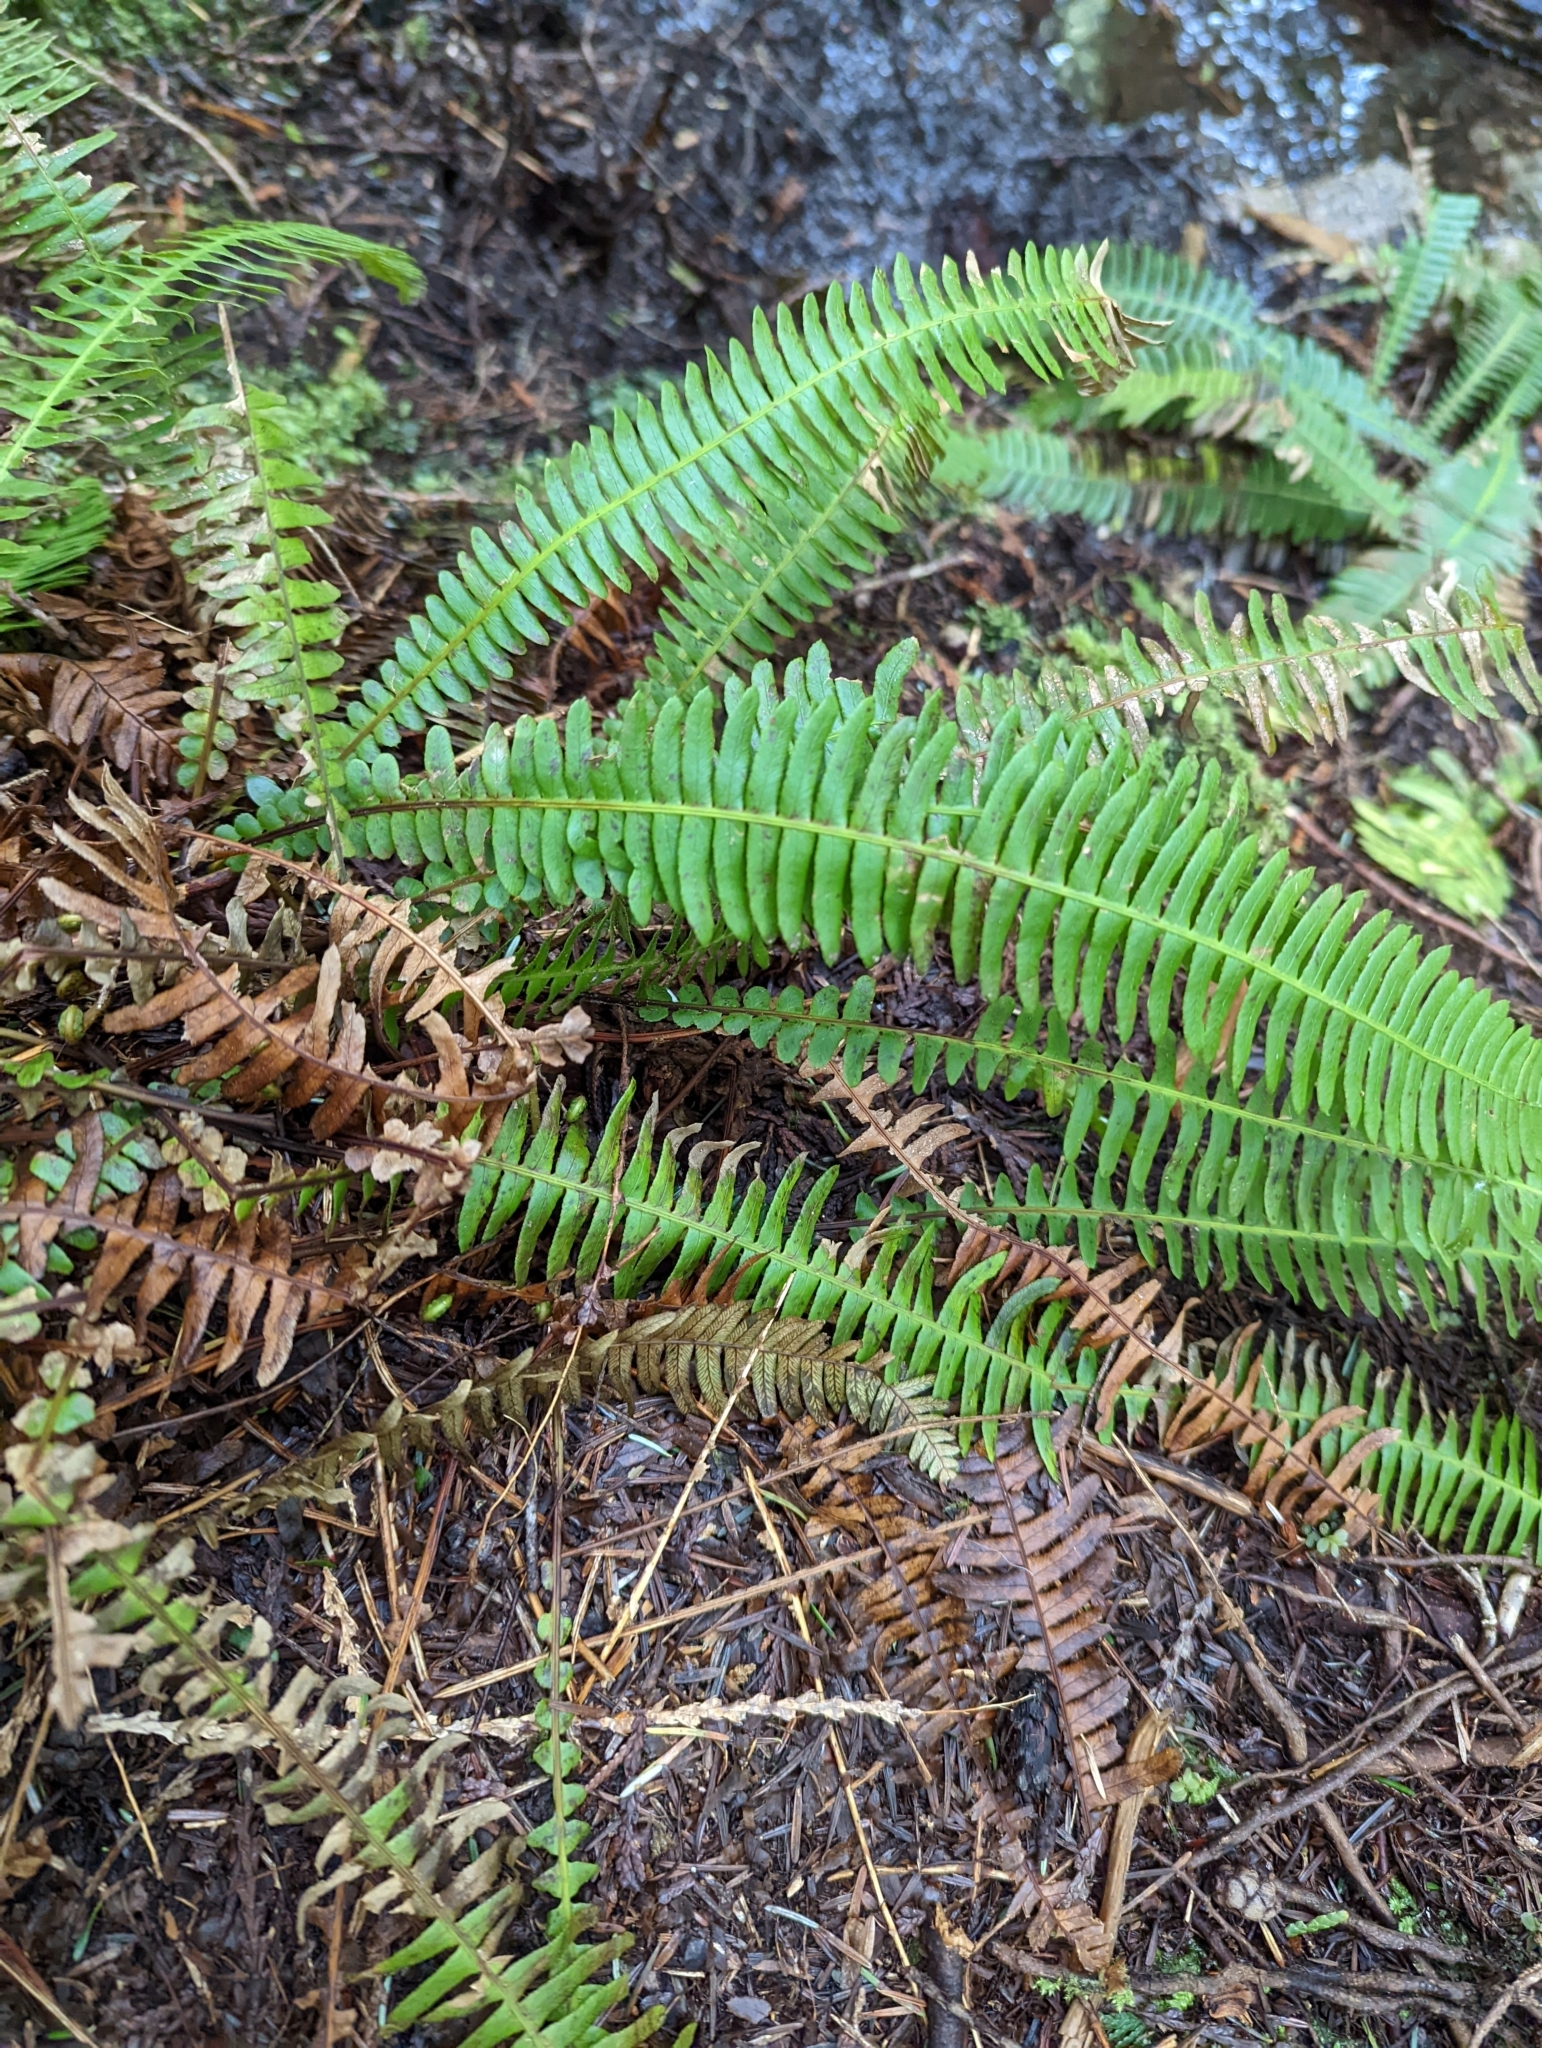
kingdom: Plantae
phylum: Tracheophyta
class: Polypodiopsida
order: Polypodiales
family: Blechnaceae
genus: Struthiopteris
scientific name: Struthiopteris spicant
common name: Deer fern
